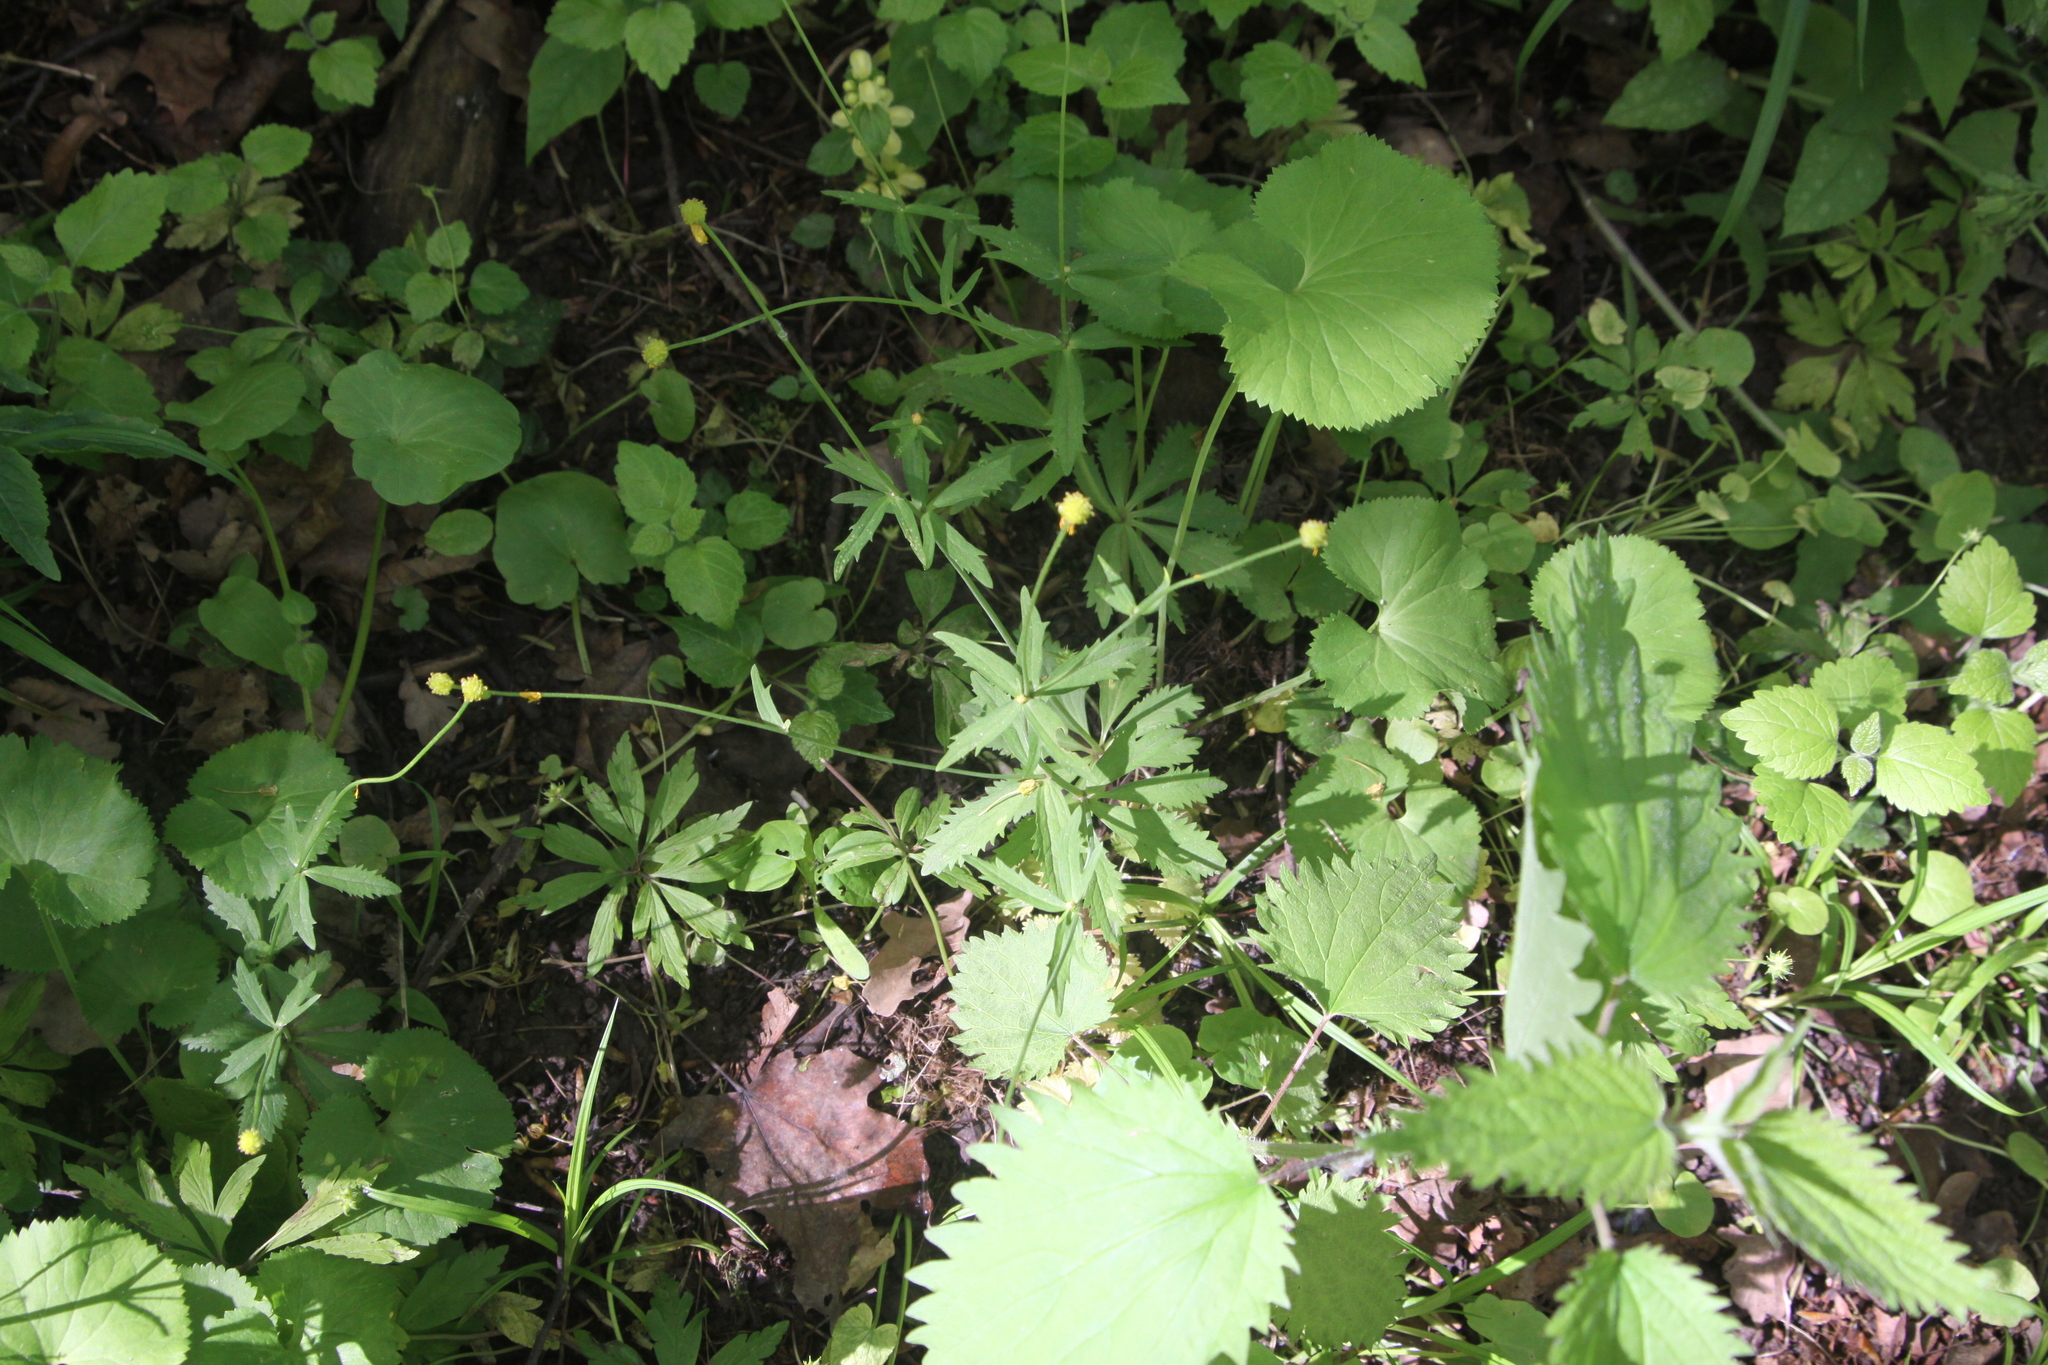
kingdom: Plantae
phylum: Tracheophyta
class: Magnoliopsida
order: Ranunculales
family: Ranunculaceae
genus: Ranunculus
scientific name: Ranunculus cassubicus
